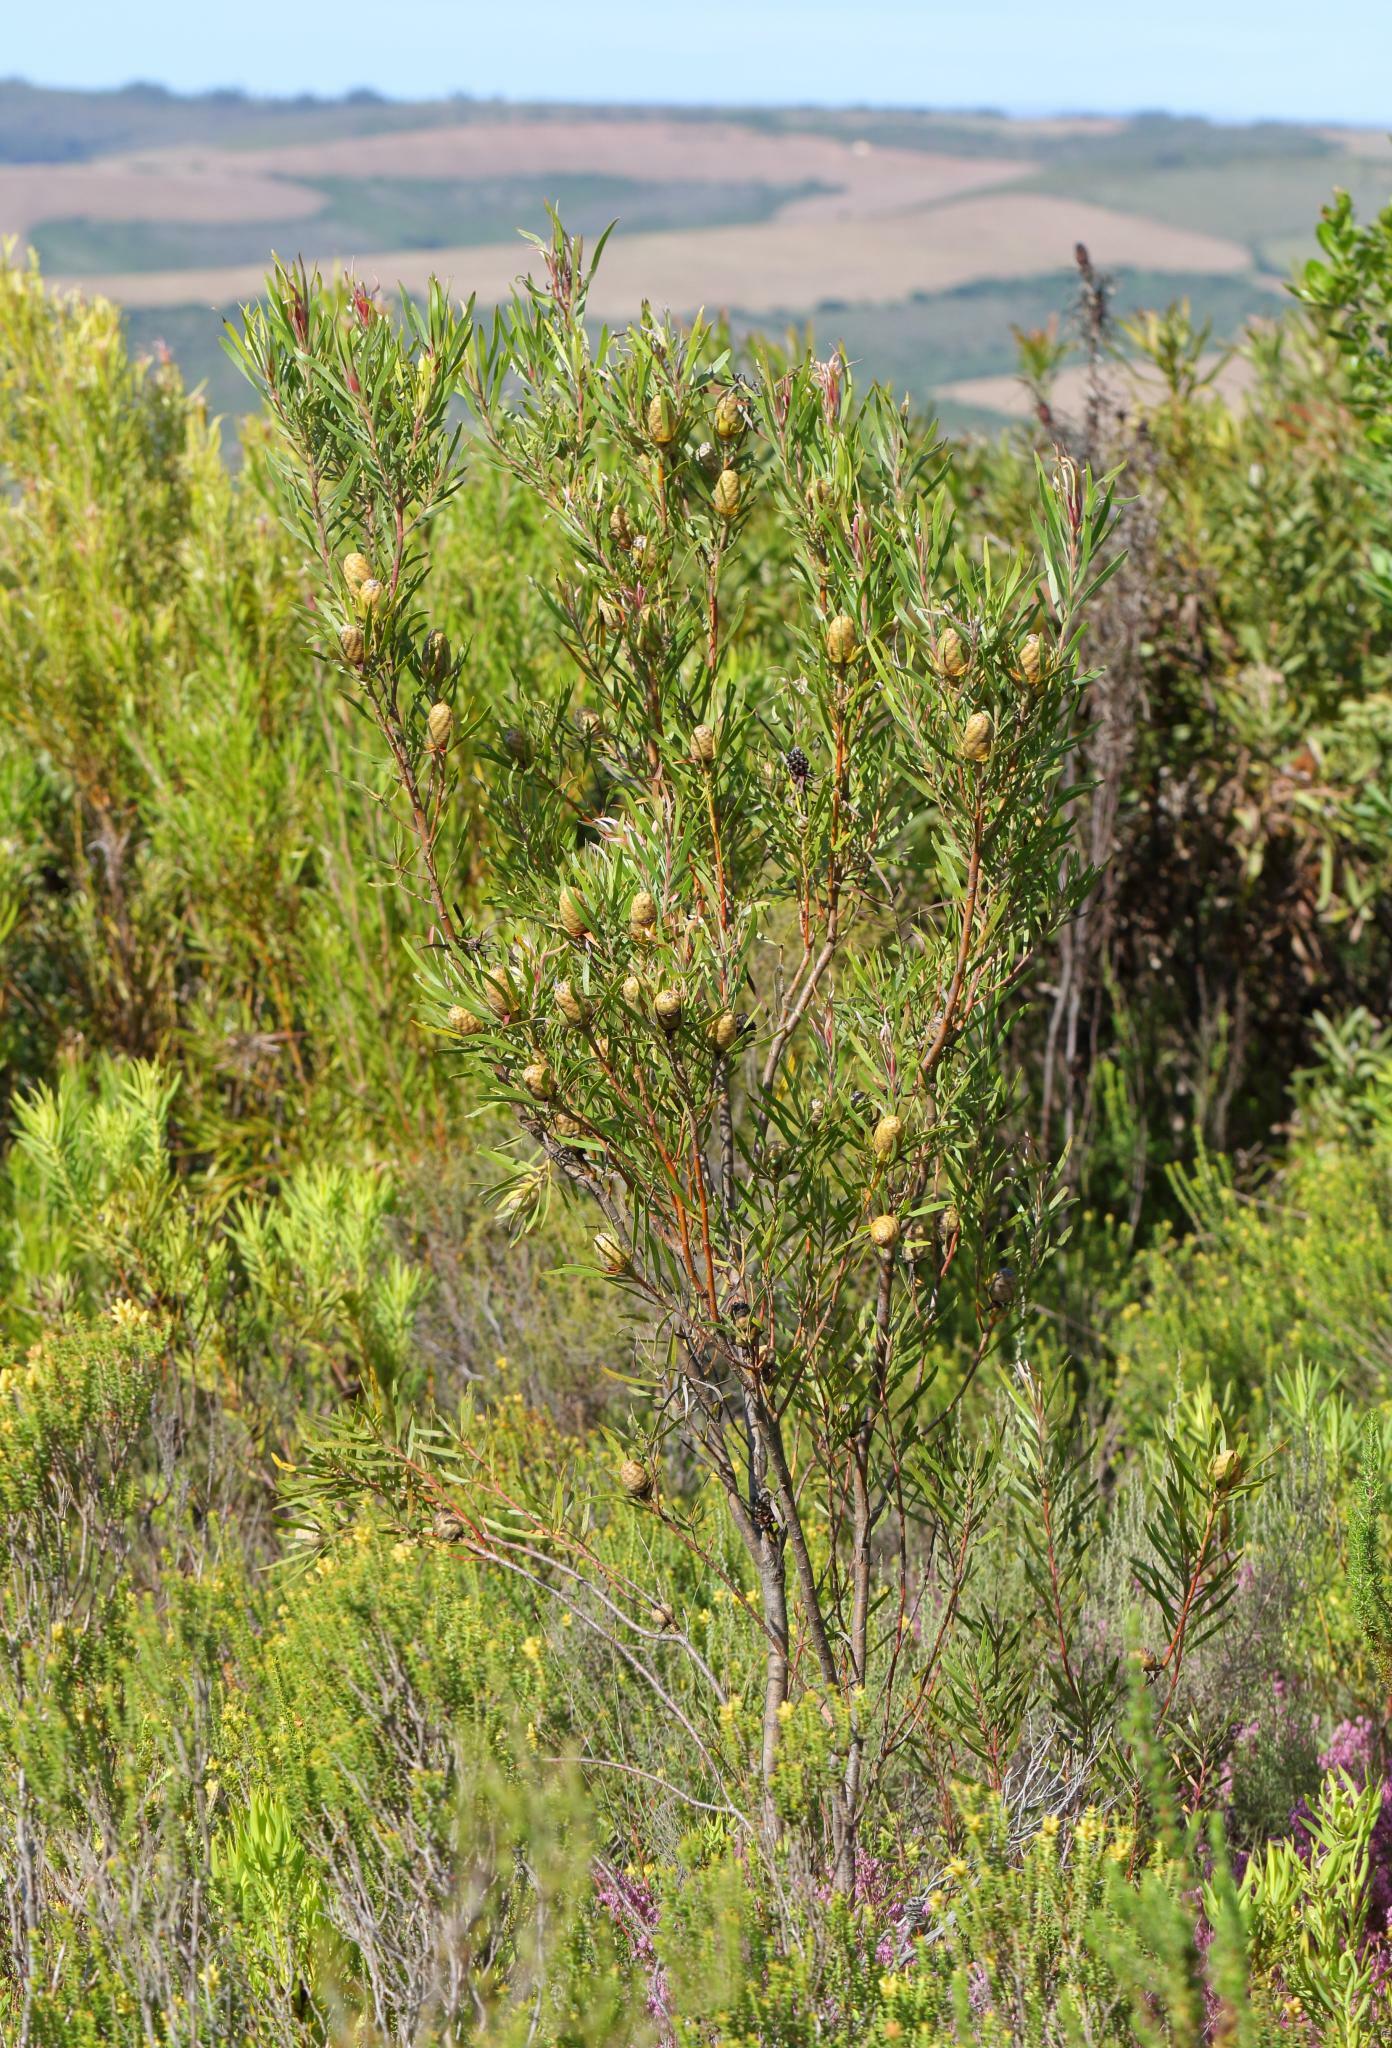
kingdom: Plantae
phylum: Tracheophyta
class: Magnoliopsida
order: Proteales
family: Proteaceae
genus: Leucadendron
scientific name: Leucadendron eucalyptifolium
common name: Gum-leaved conebush
